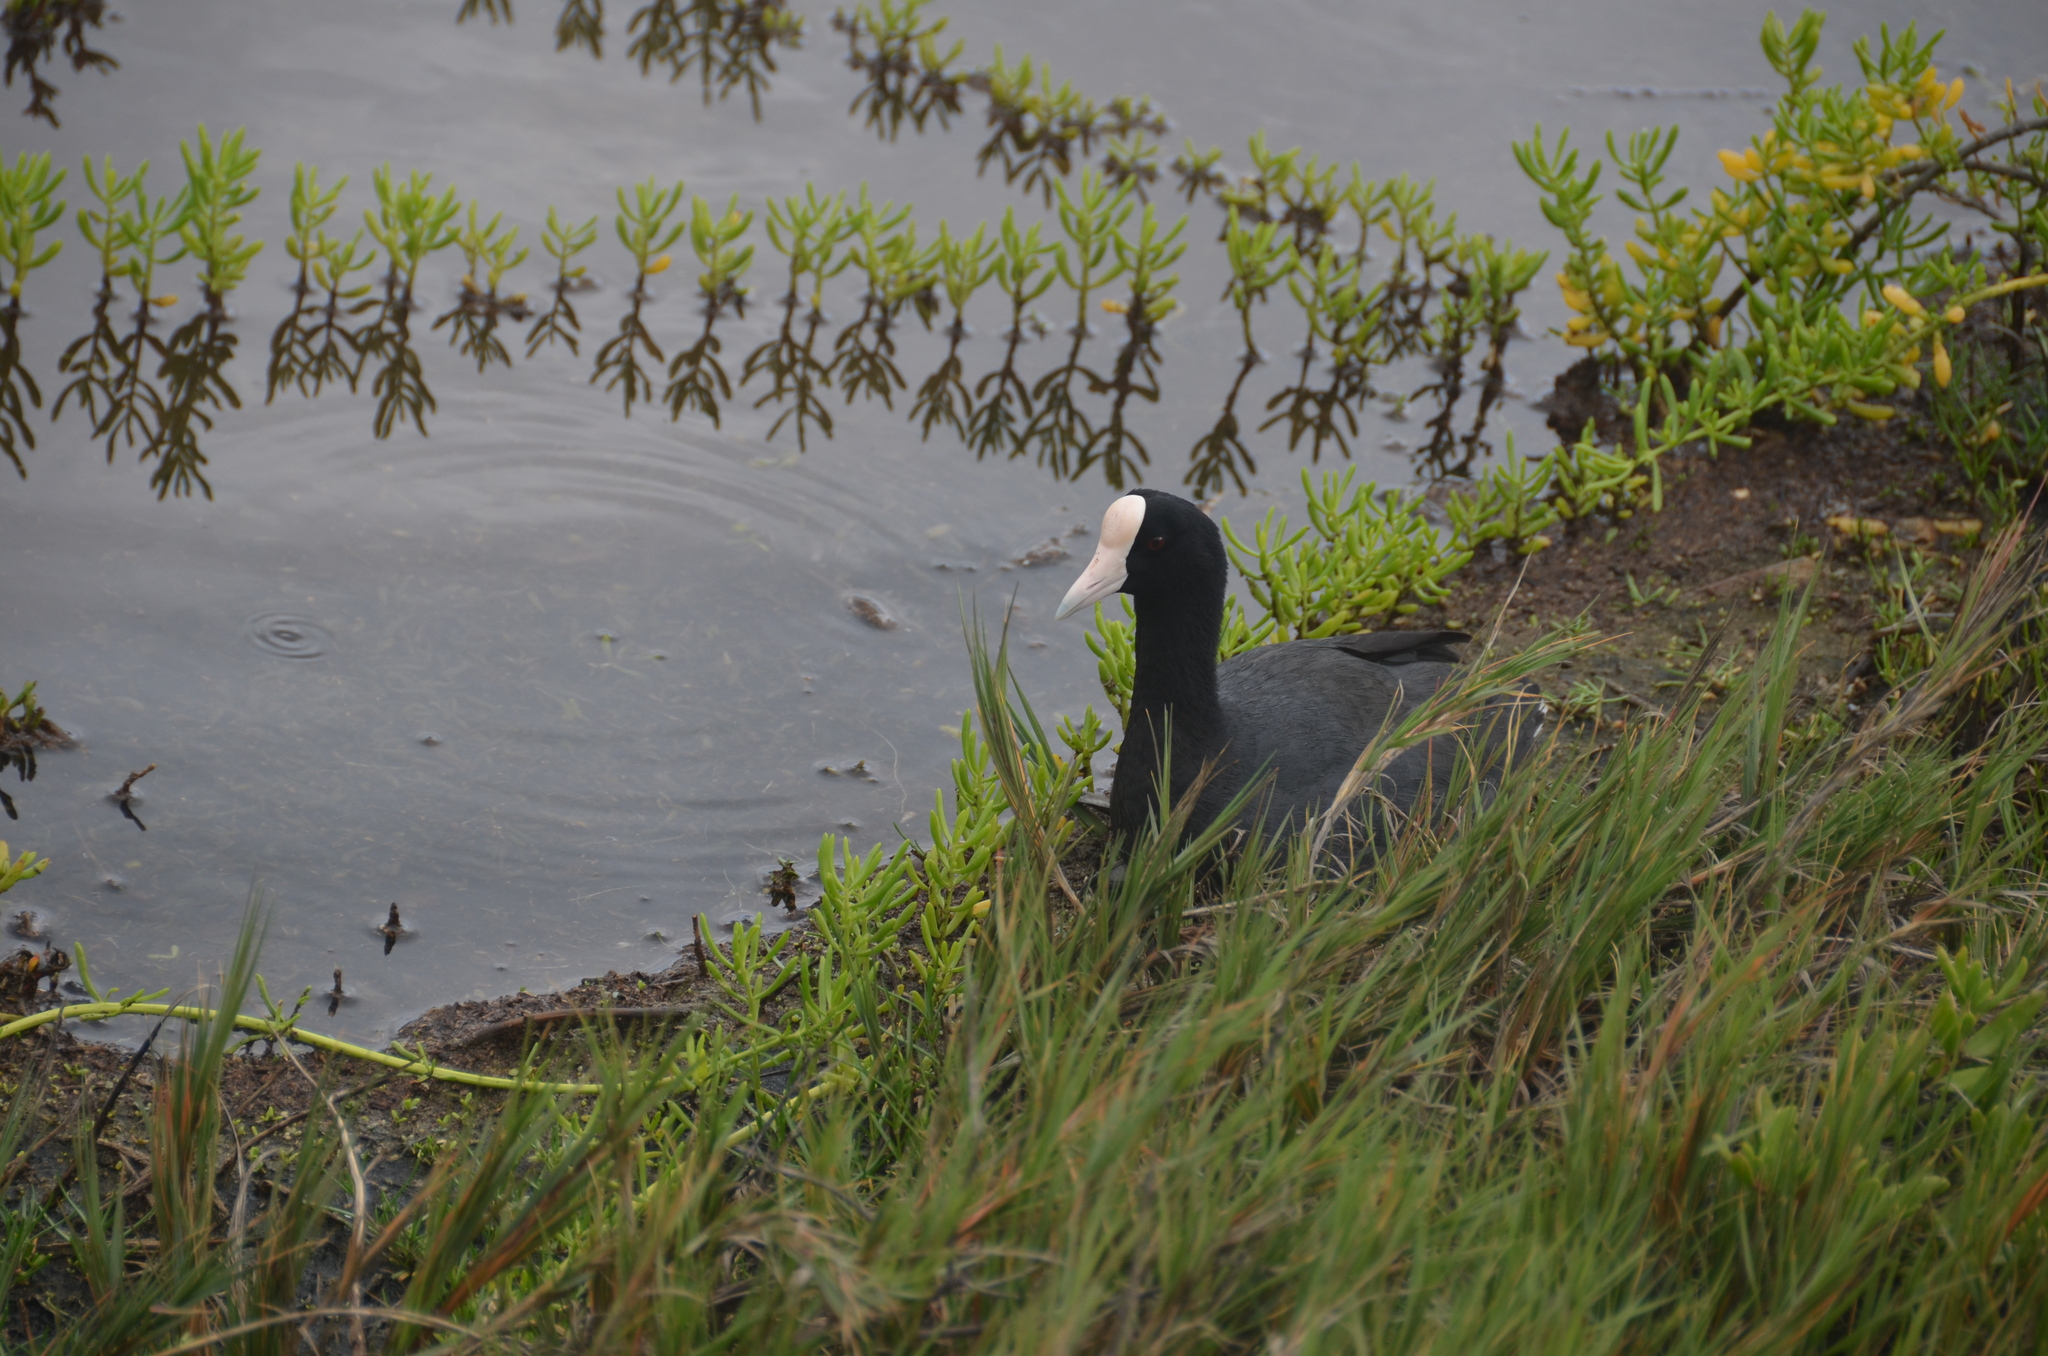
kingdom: Animalia
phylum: Chordata
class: Aves
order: Gruiformes
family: Rallidae
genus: Fulica
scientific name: Fulica alai
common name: Hawaiian coot
